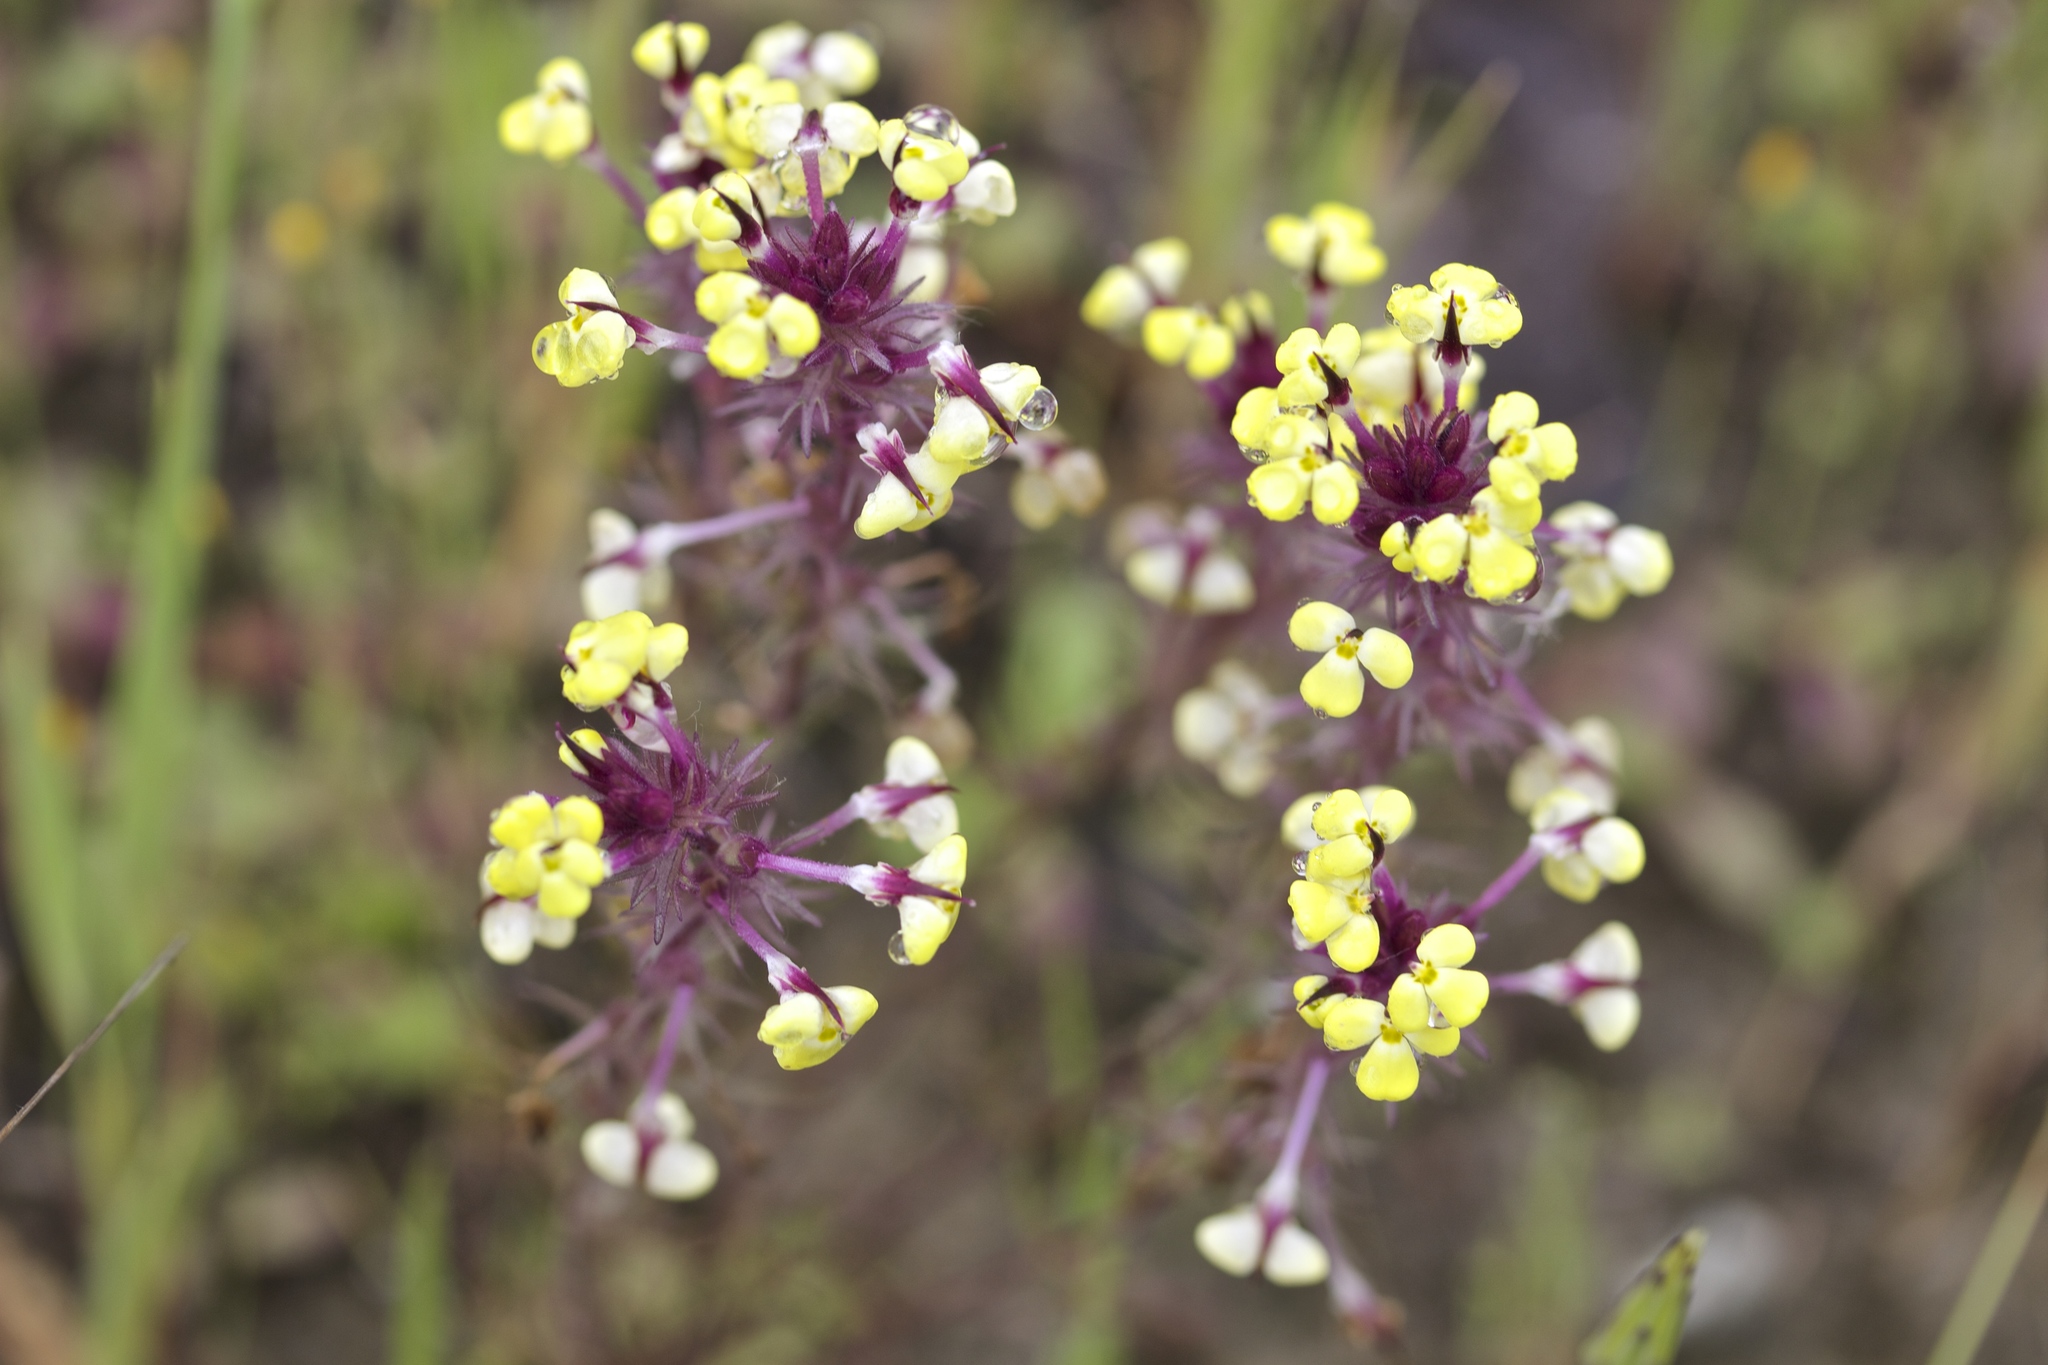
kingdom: Plantae
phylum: Tracheophyta
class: Magnoliopsida
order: Lamiales
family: Orobanchaceae
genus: Triphysaria
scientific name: Triphysaria eriantha
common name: Johnny-tuck
